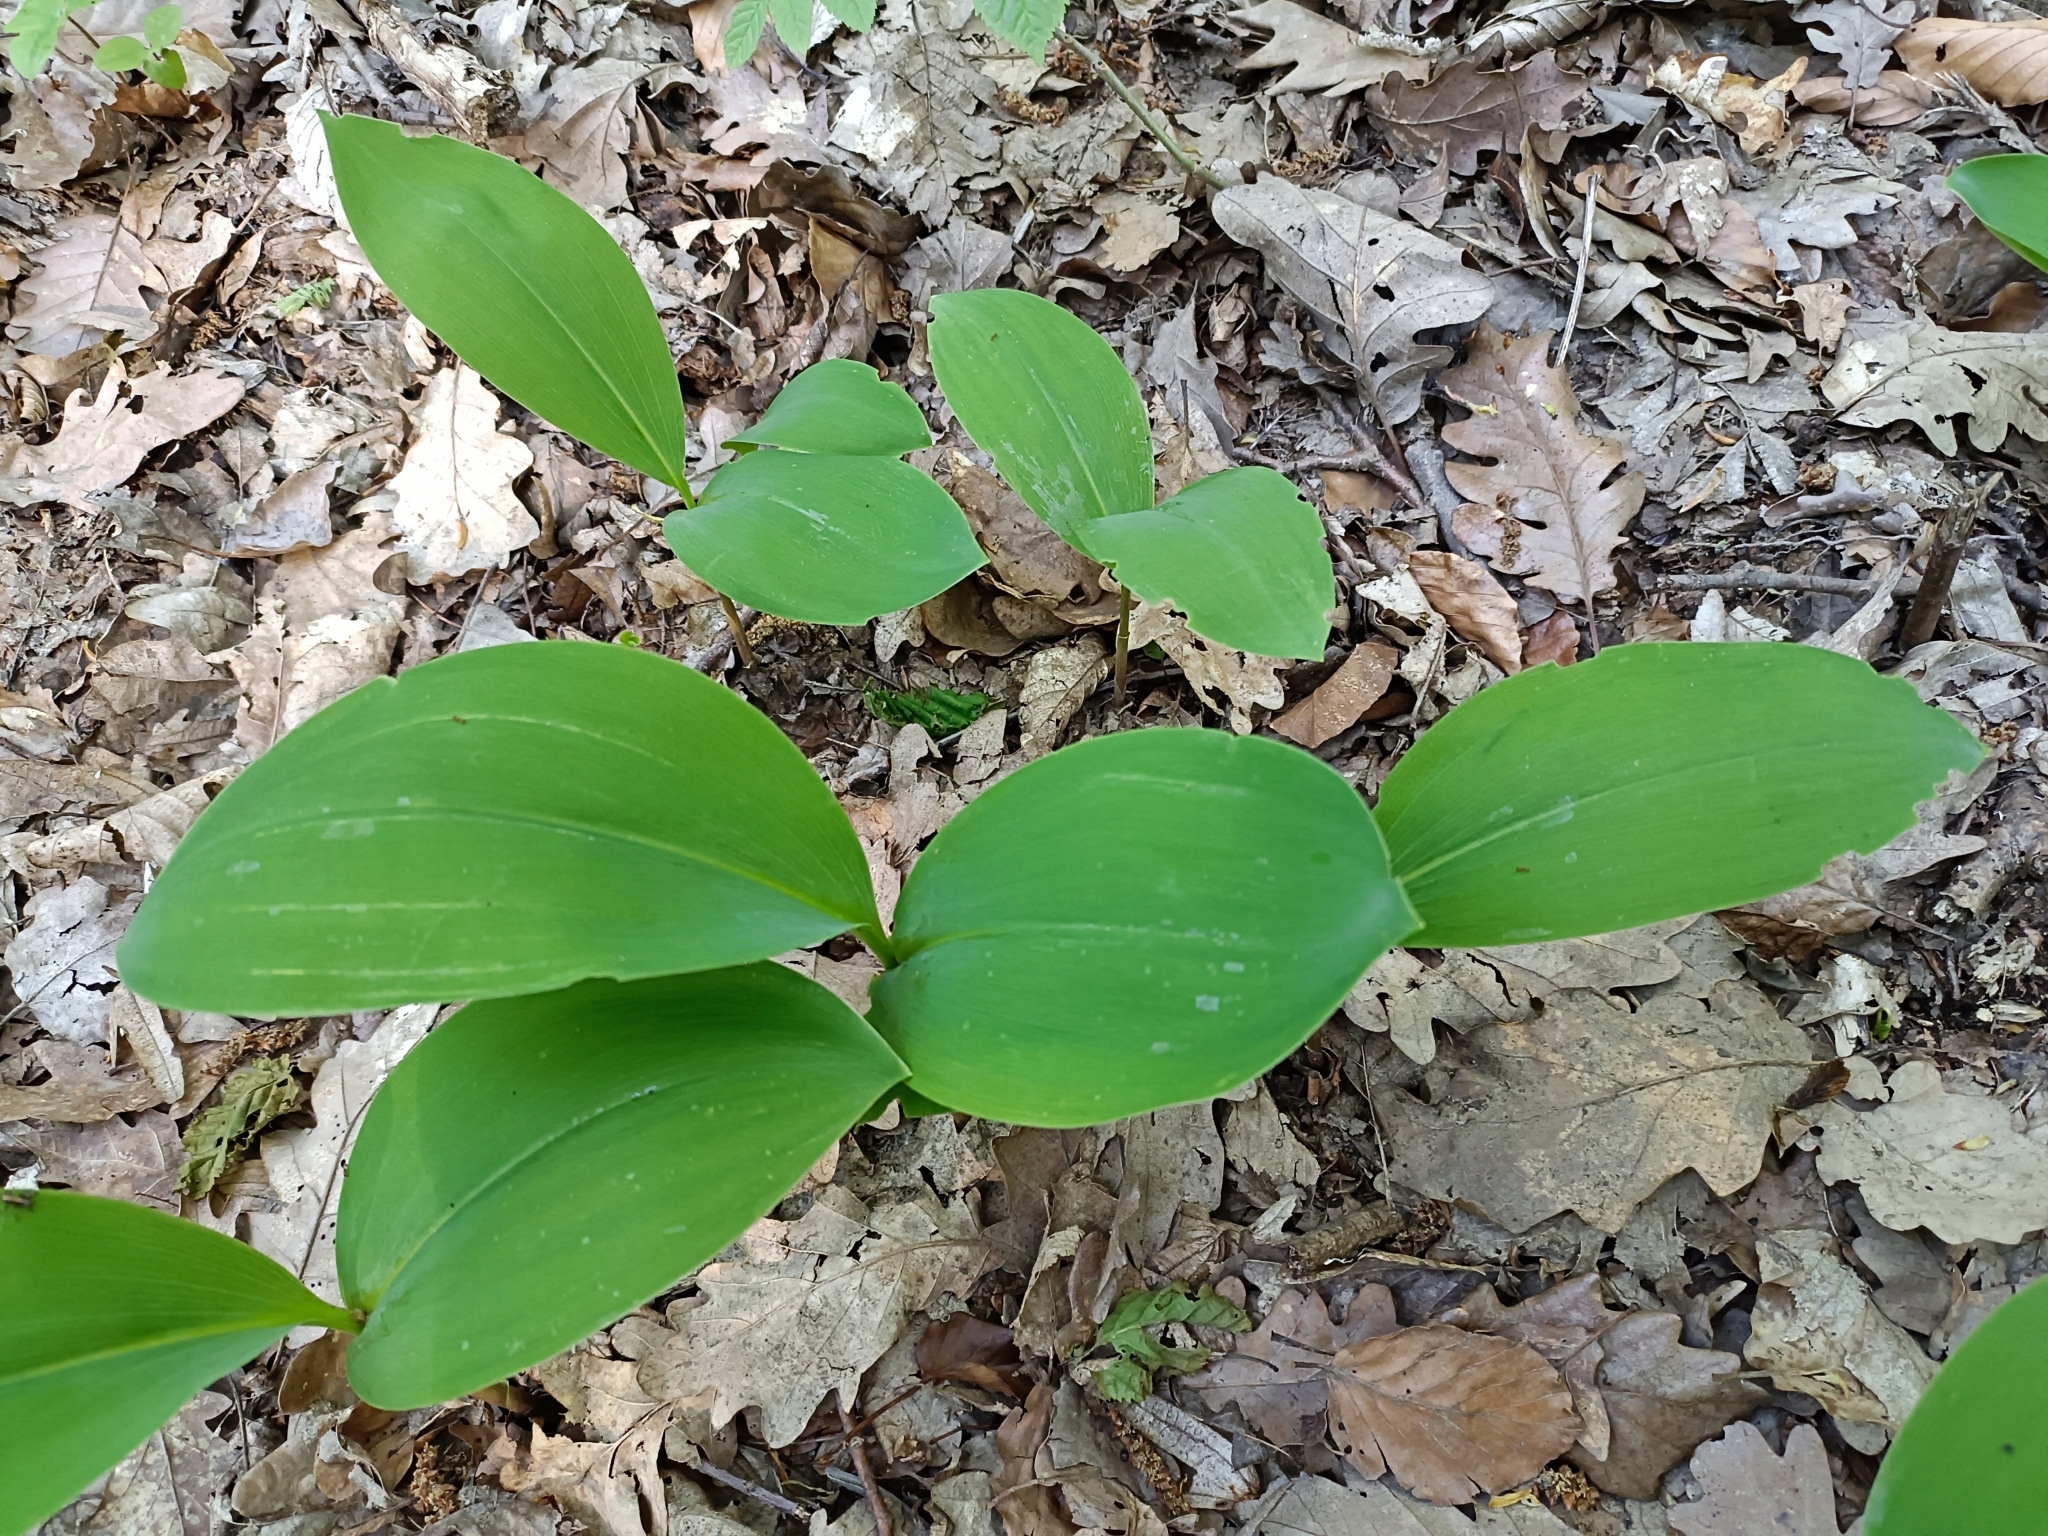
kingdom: Plantae
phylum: Tracheophyta
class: Liliopsida
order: Asparagales
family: Asparagaceae
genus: Convallaria
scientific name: Convallaria majalis
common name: Lily-of-the-valley
